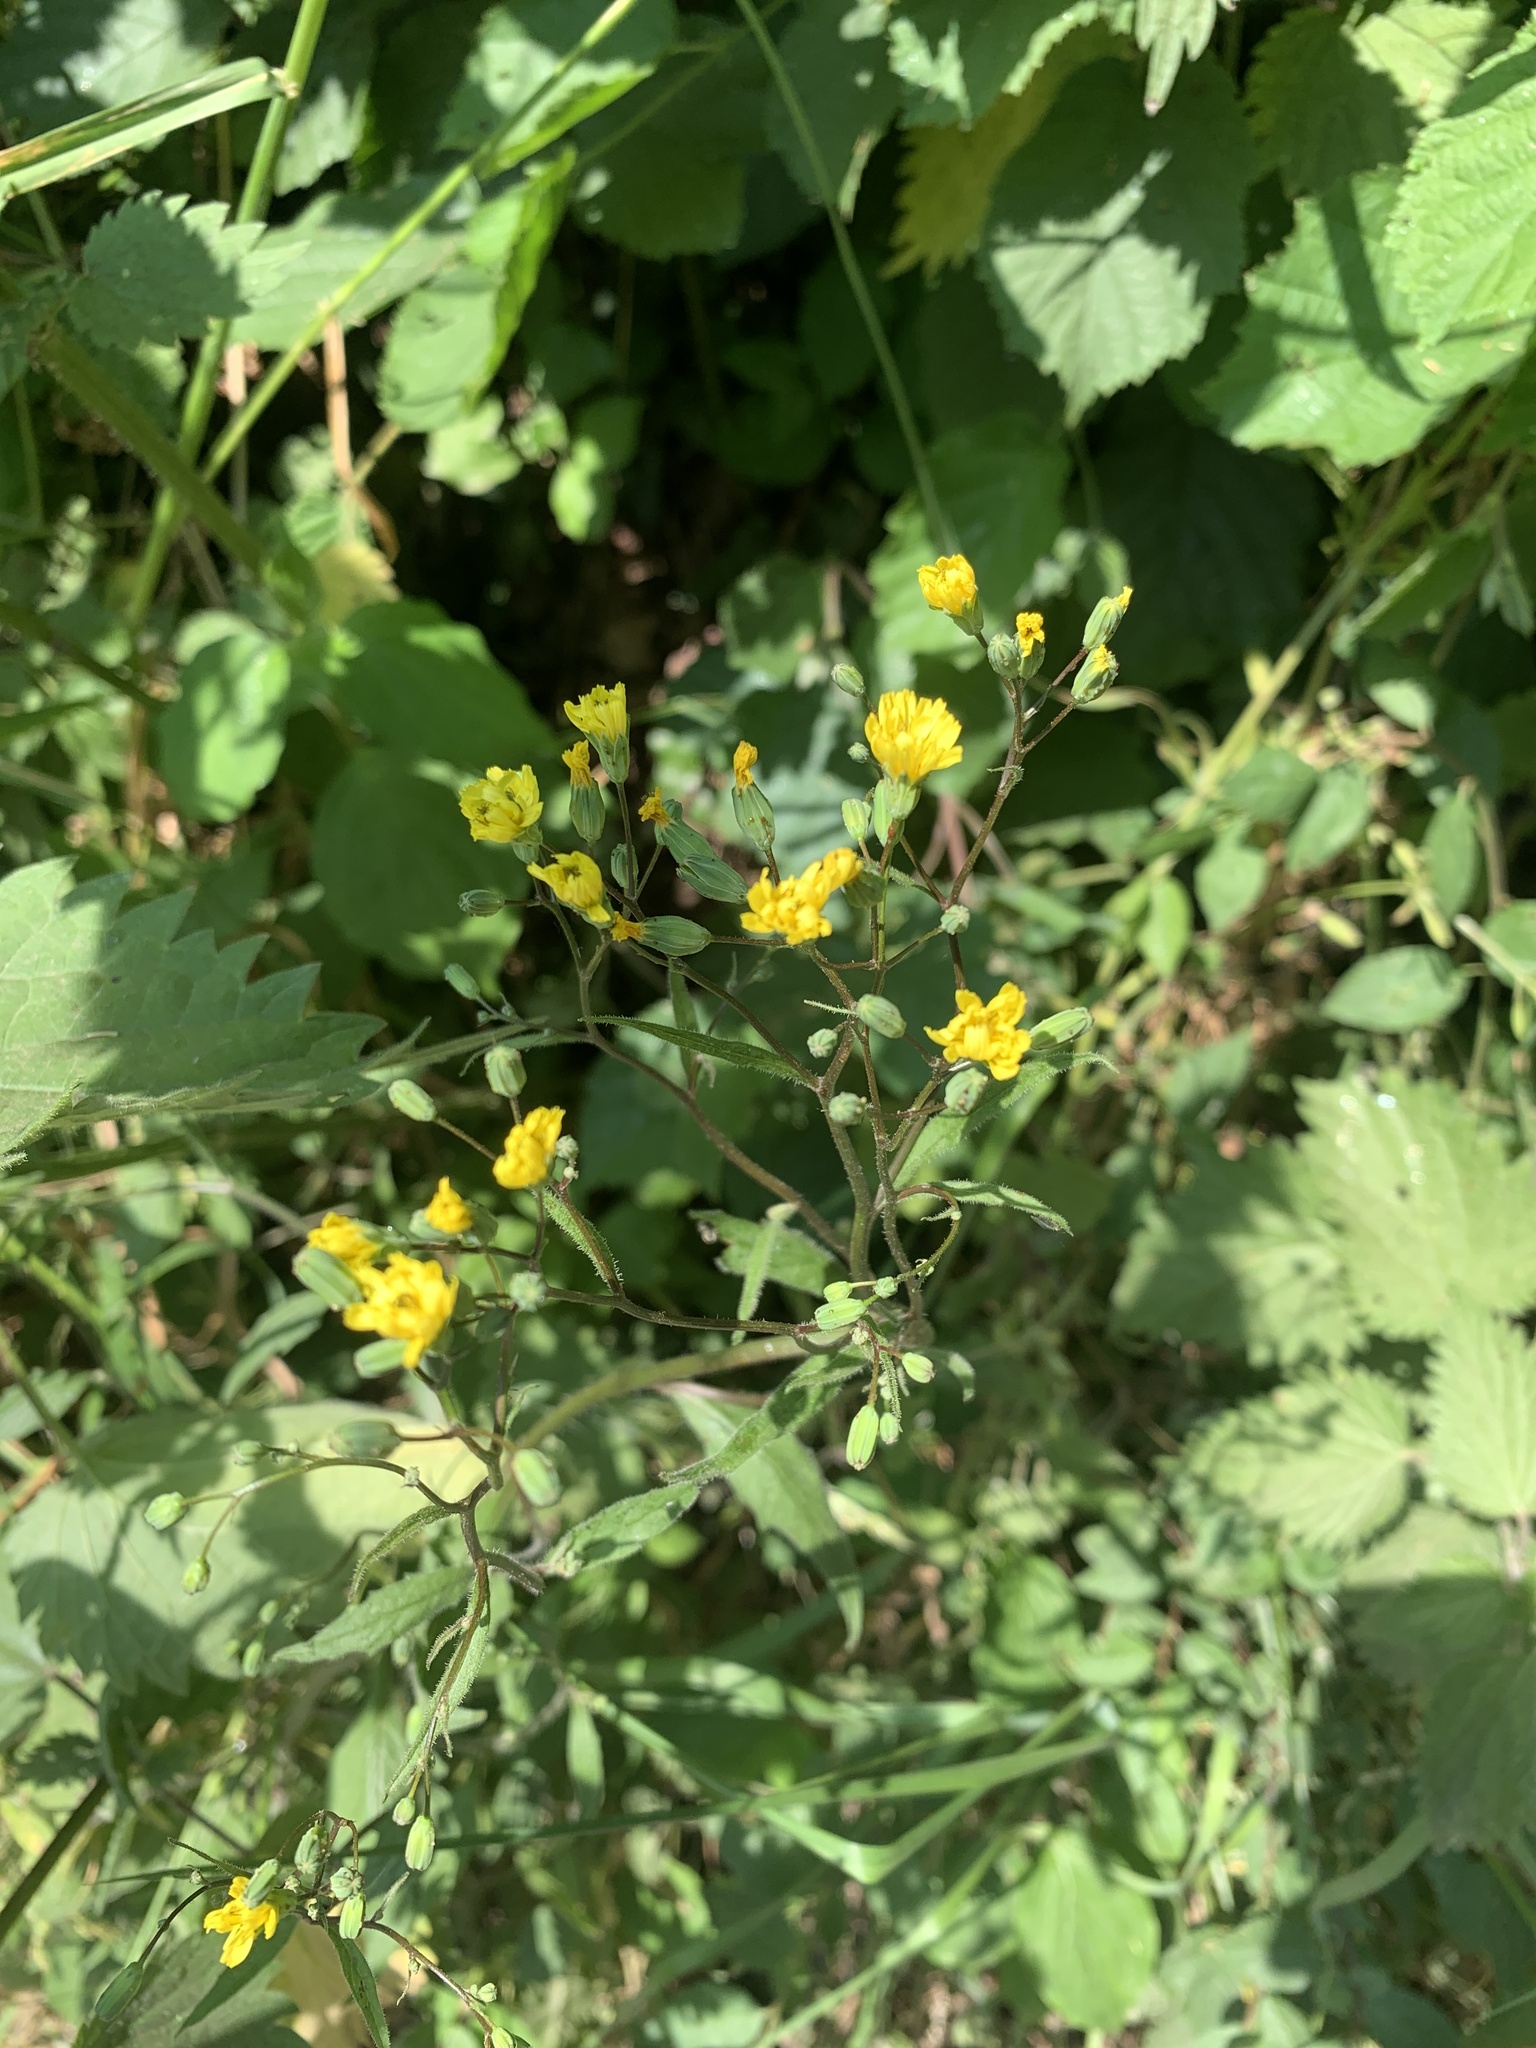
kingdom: Plantae
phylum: Tracheophyta
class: Magnoliopsida
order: Asterales
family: Asteraceae
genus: Lapsana
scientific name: Lapsana communis
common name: Nipplewort
